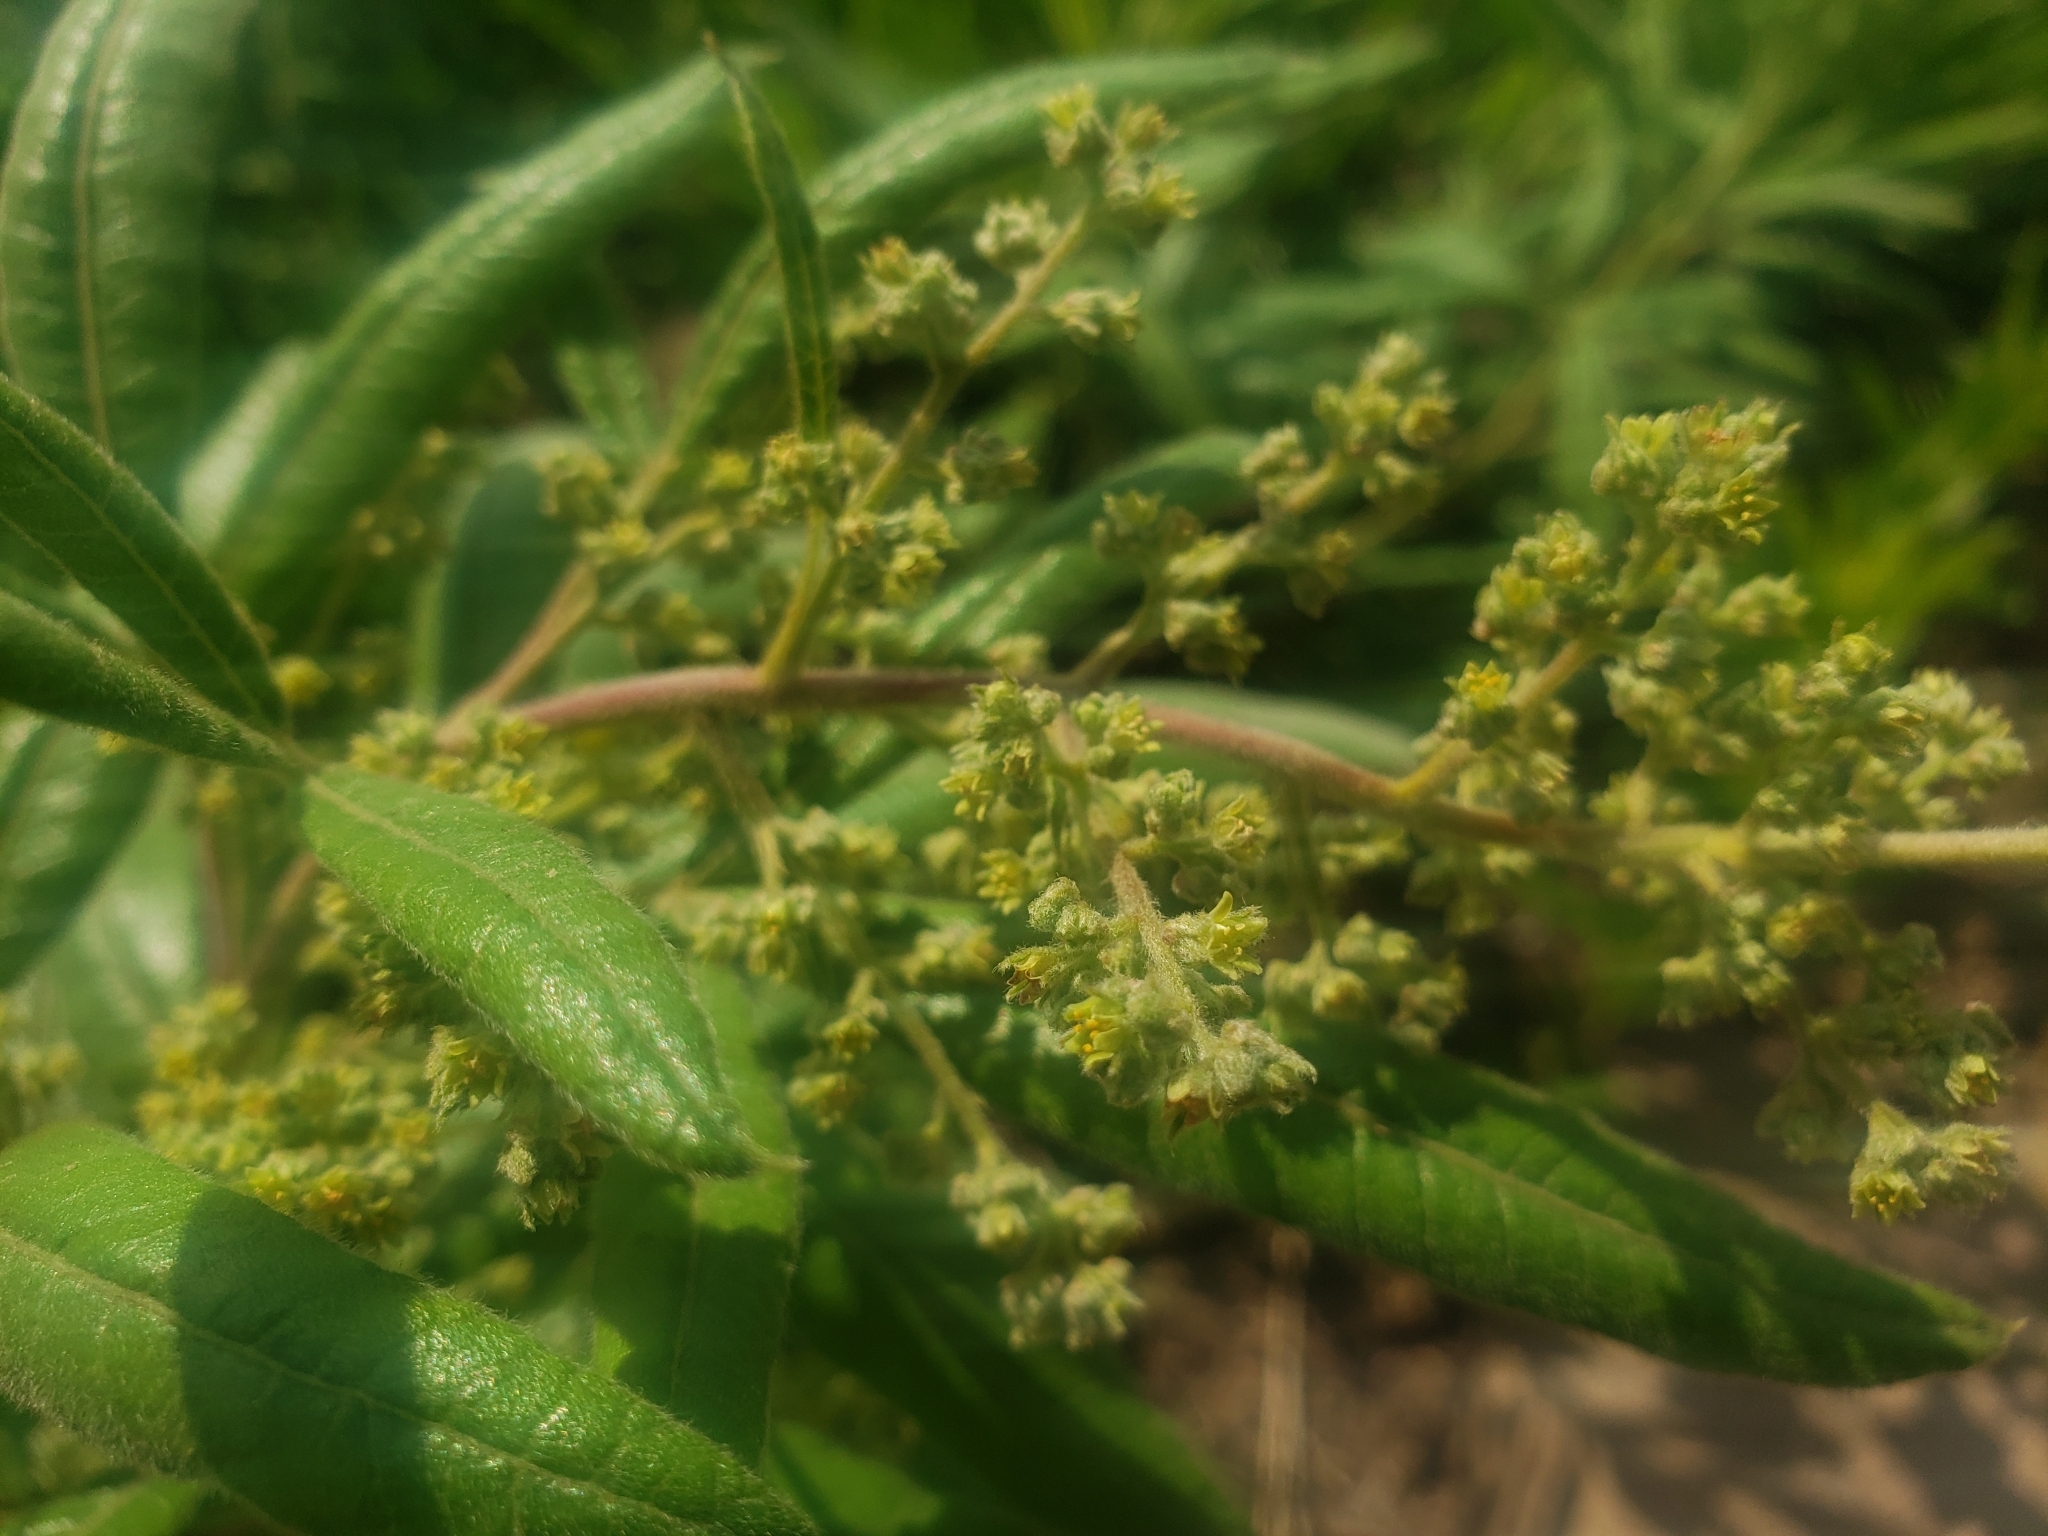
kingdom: Plantae
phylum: Tracheophyta
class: Magnoliopsida
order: Sapindales
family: Anacardiaceae
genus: Searsia
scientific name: Searsia discolor
